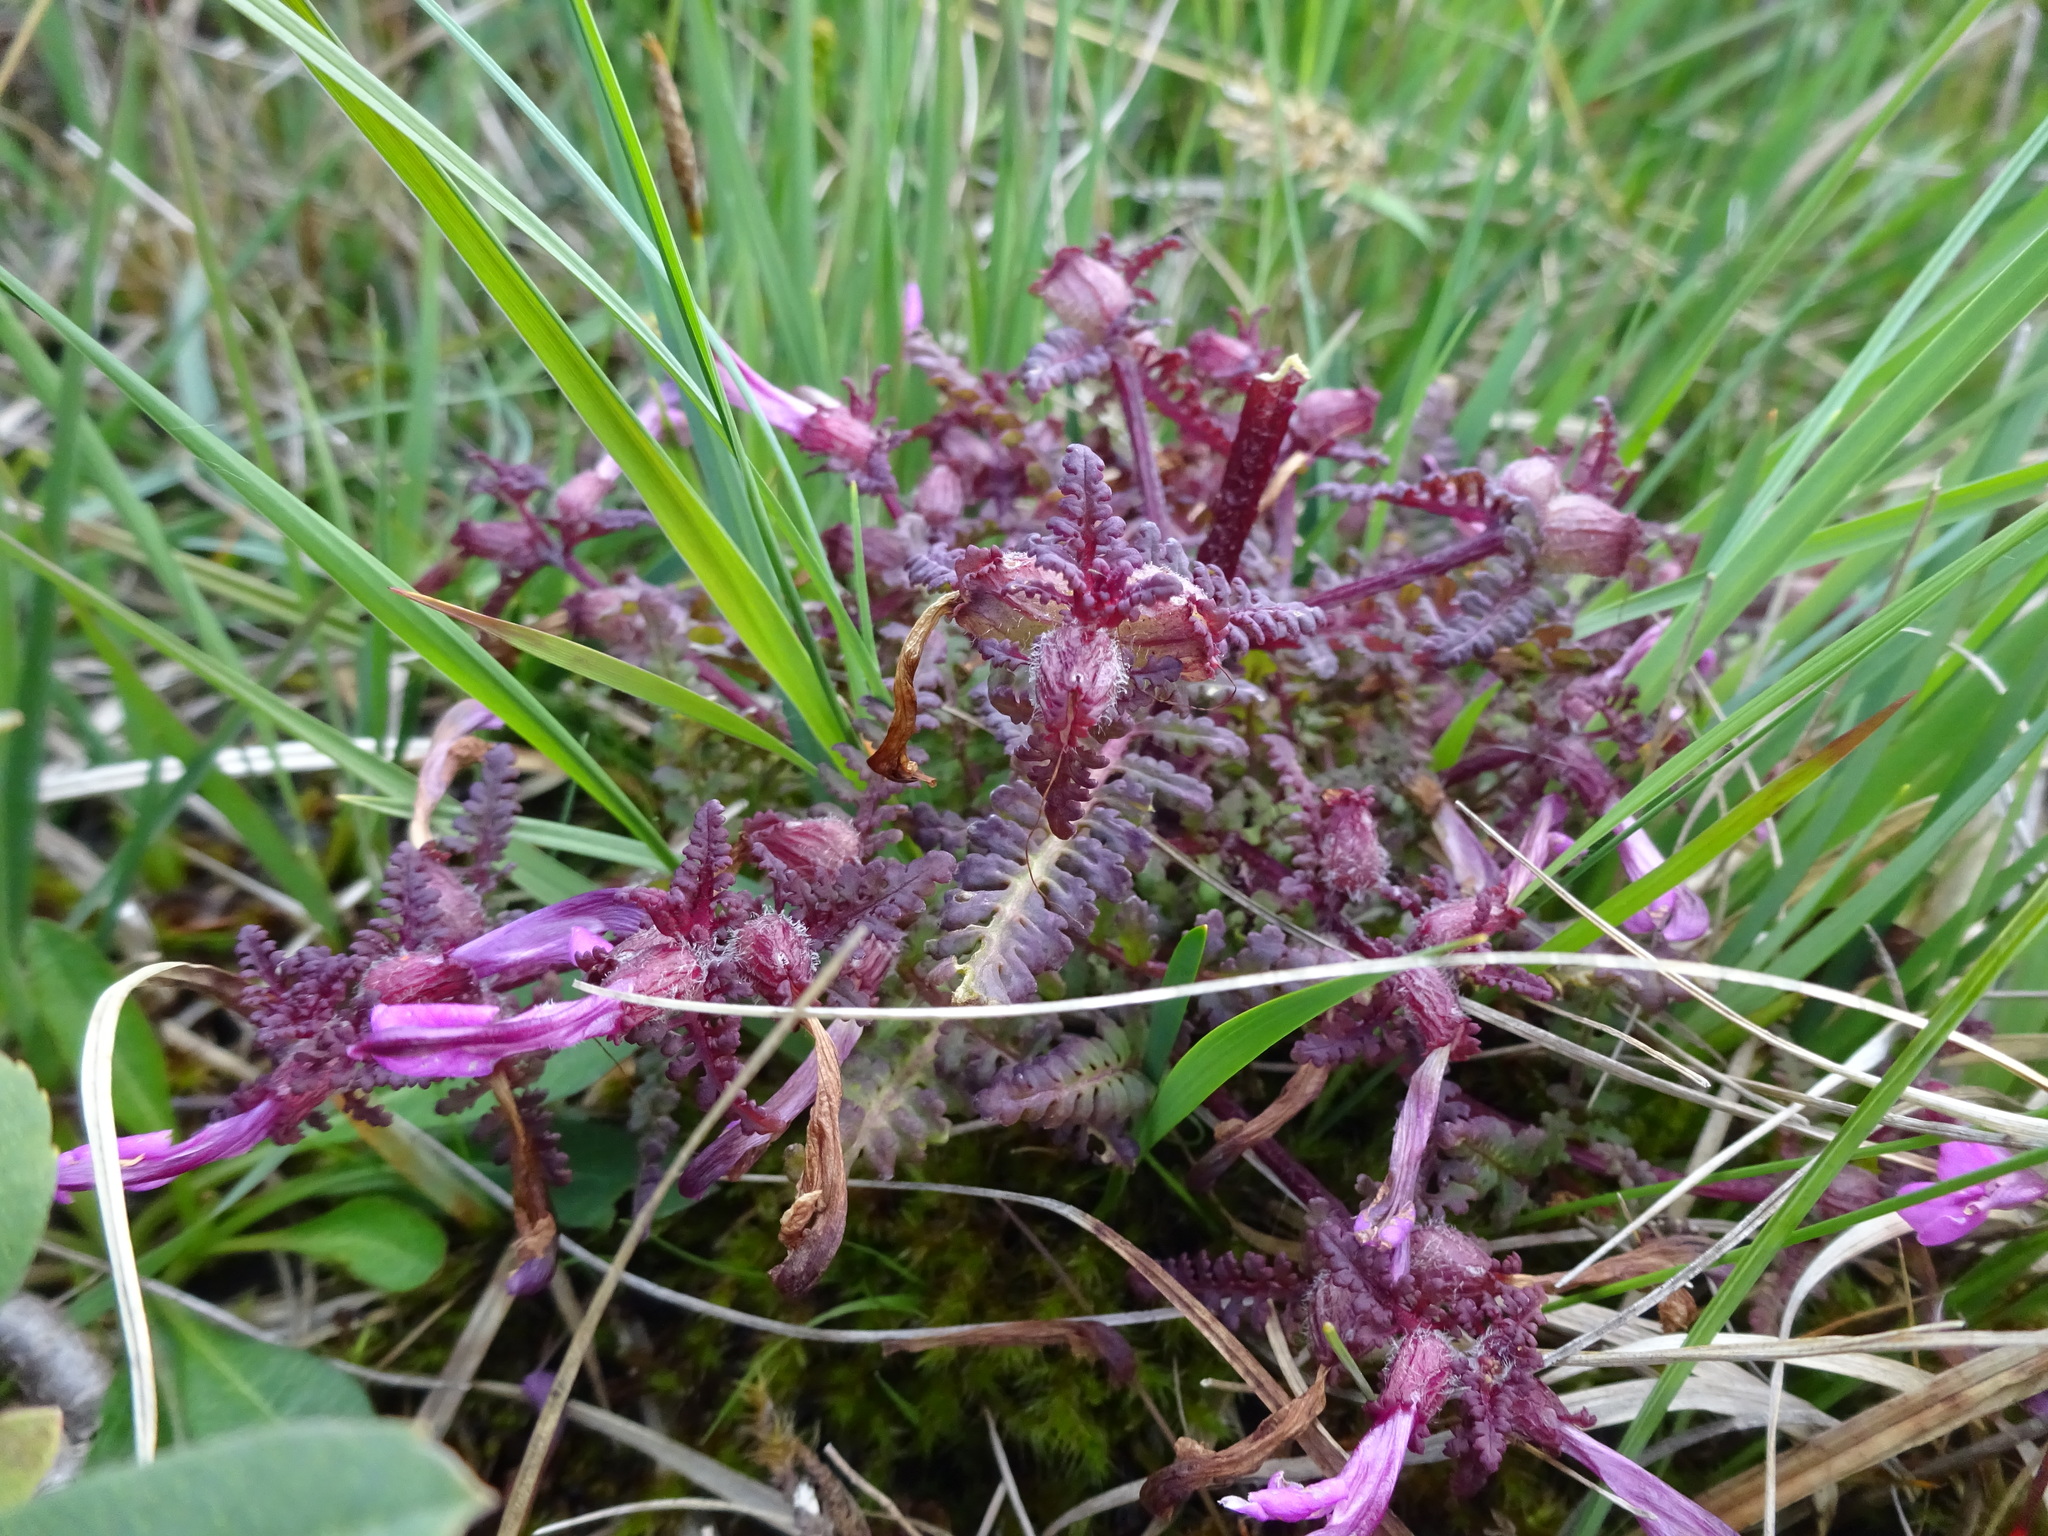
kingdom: Plantae
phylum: Tracheophyta
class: Magnoliopsida
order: Lamiales
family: Orobanchaceae
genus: Pedicularis
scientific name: Pedicularis palustris
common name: Marsh lousewort
